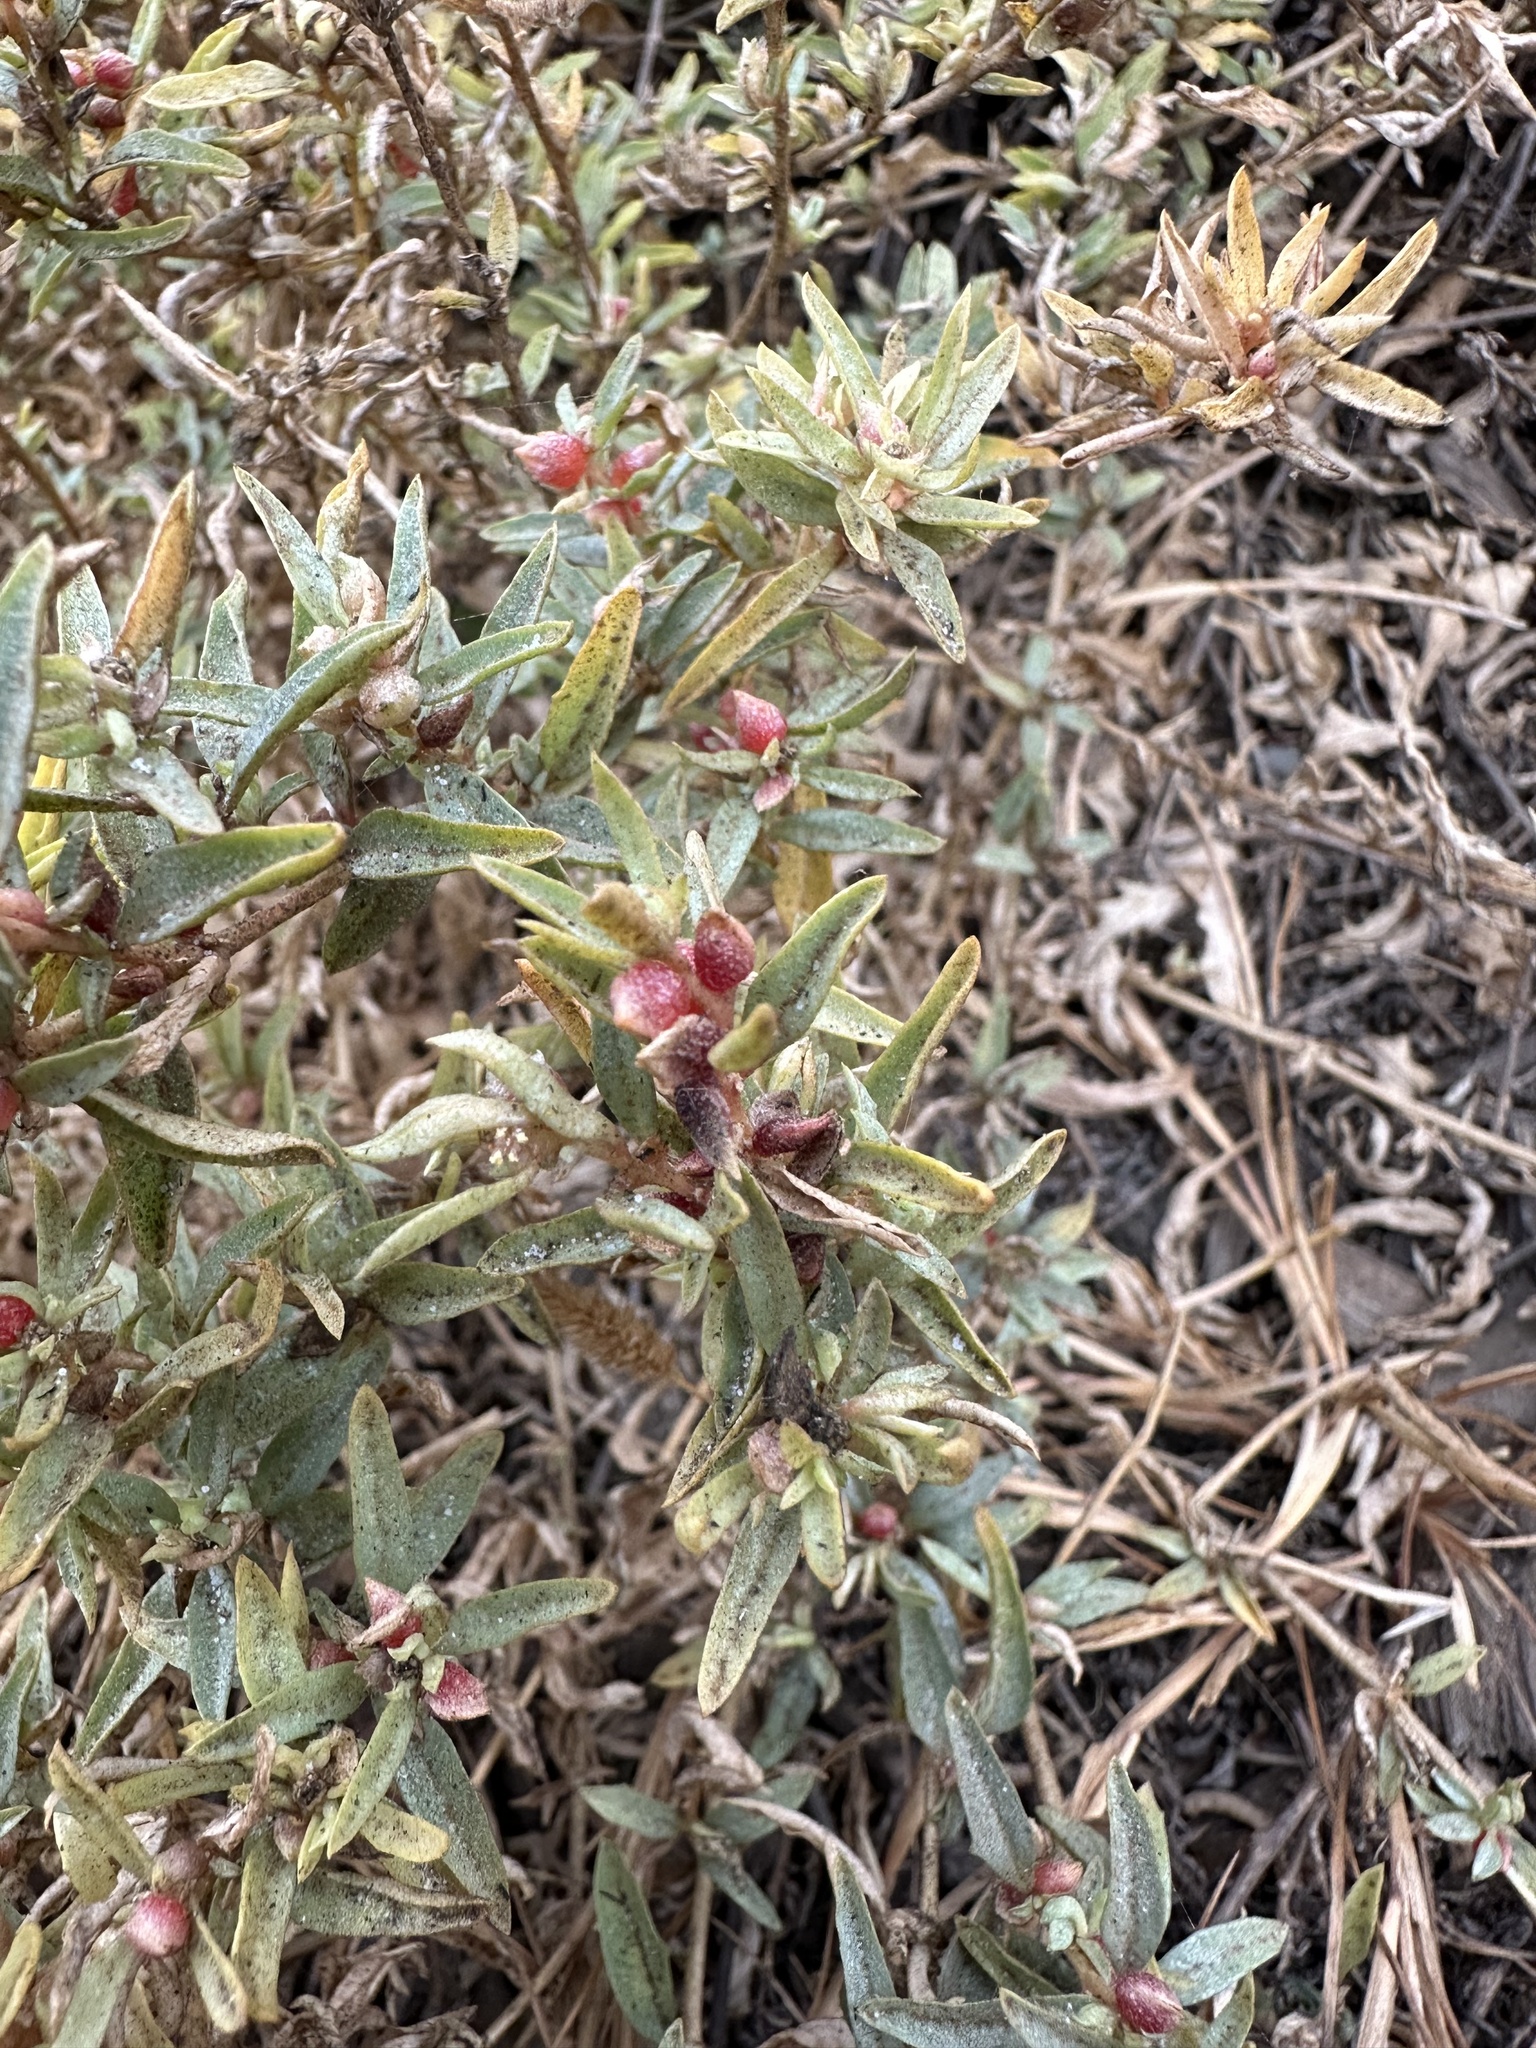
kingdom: Plantae
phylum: Tracheophyta
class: Magnoliopsida
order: Caryophyllales
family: Amaranthaceae
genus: Atriplex
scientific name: Atriplex semibaccata
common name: Australian saltbush
